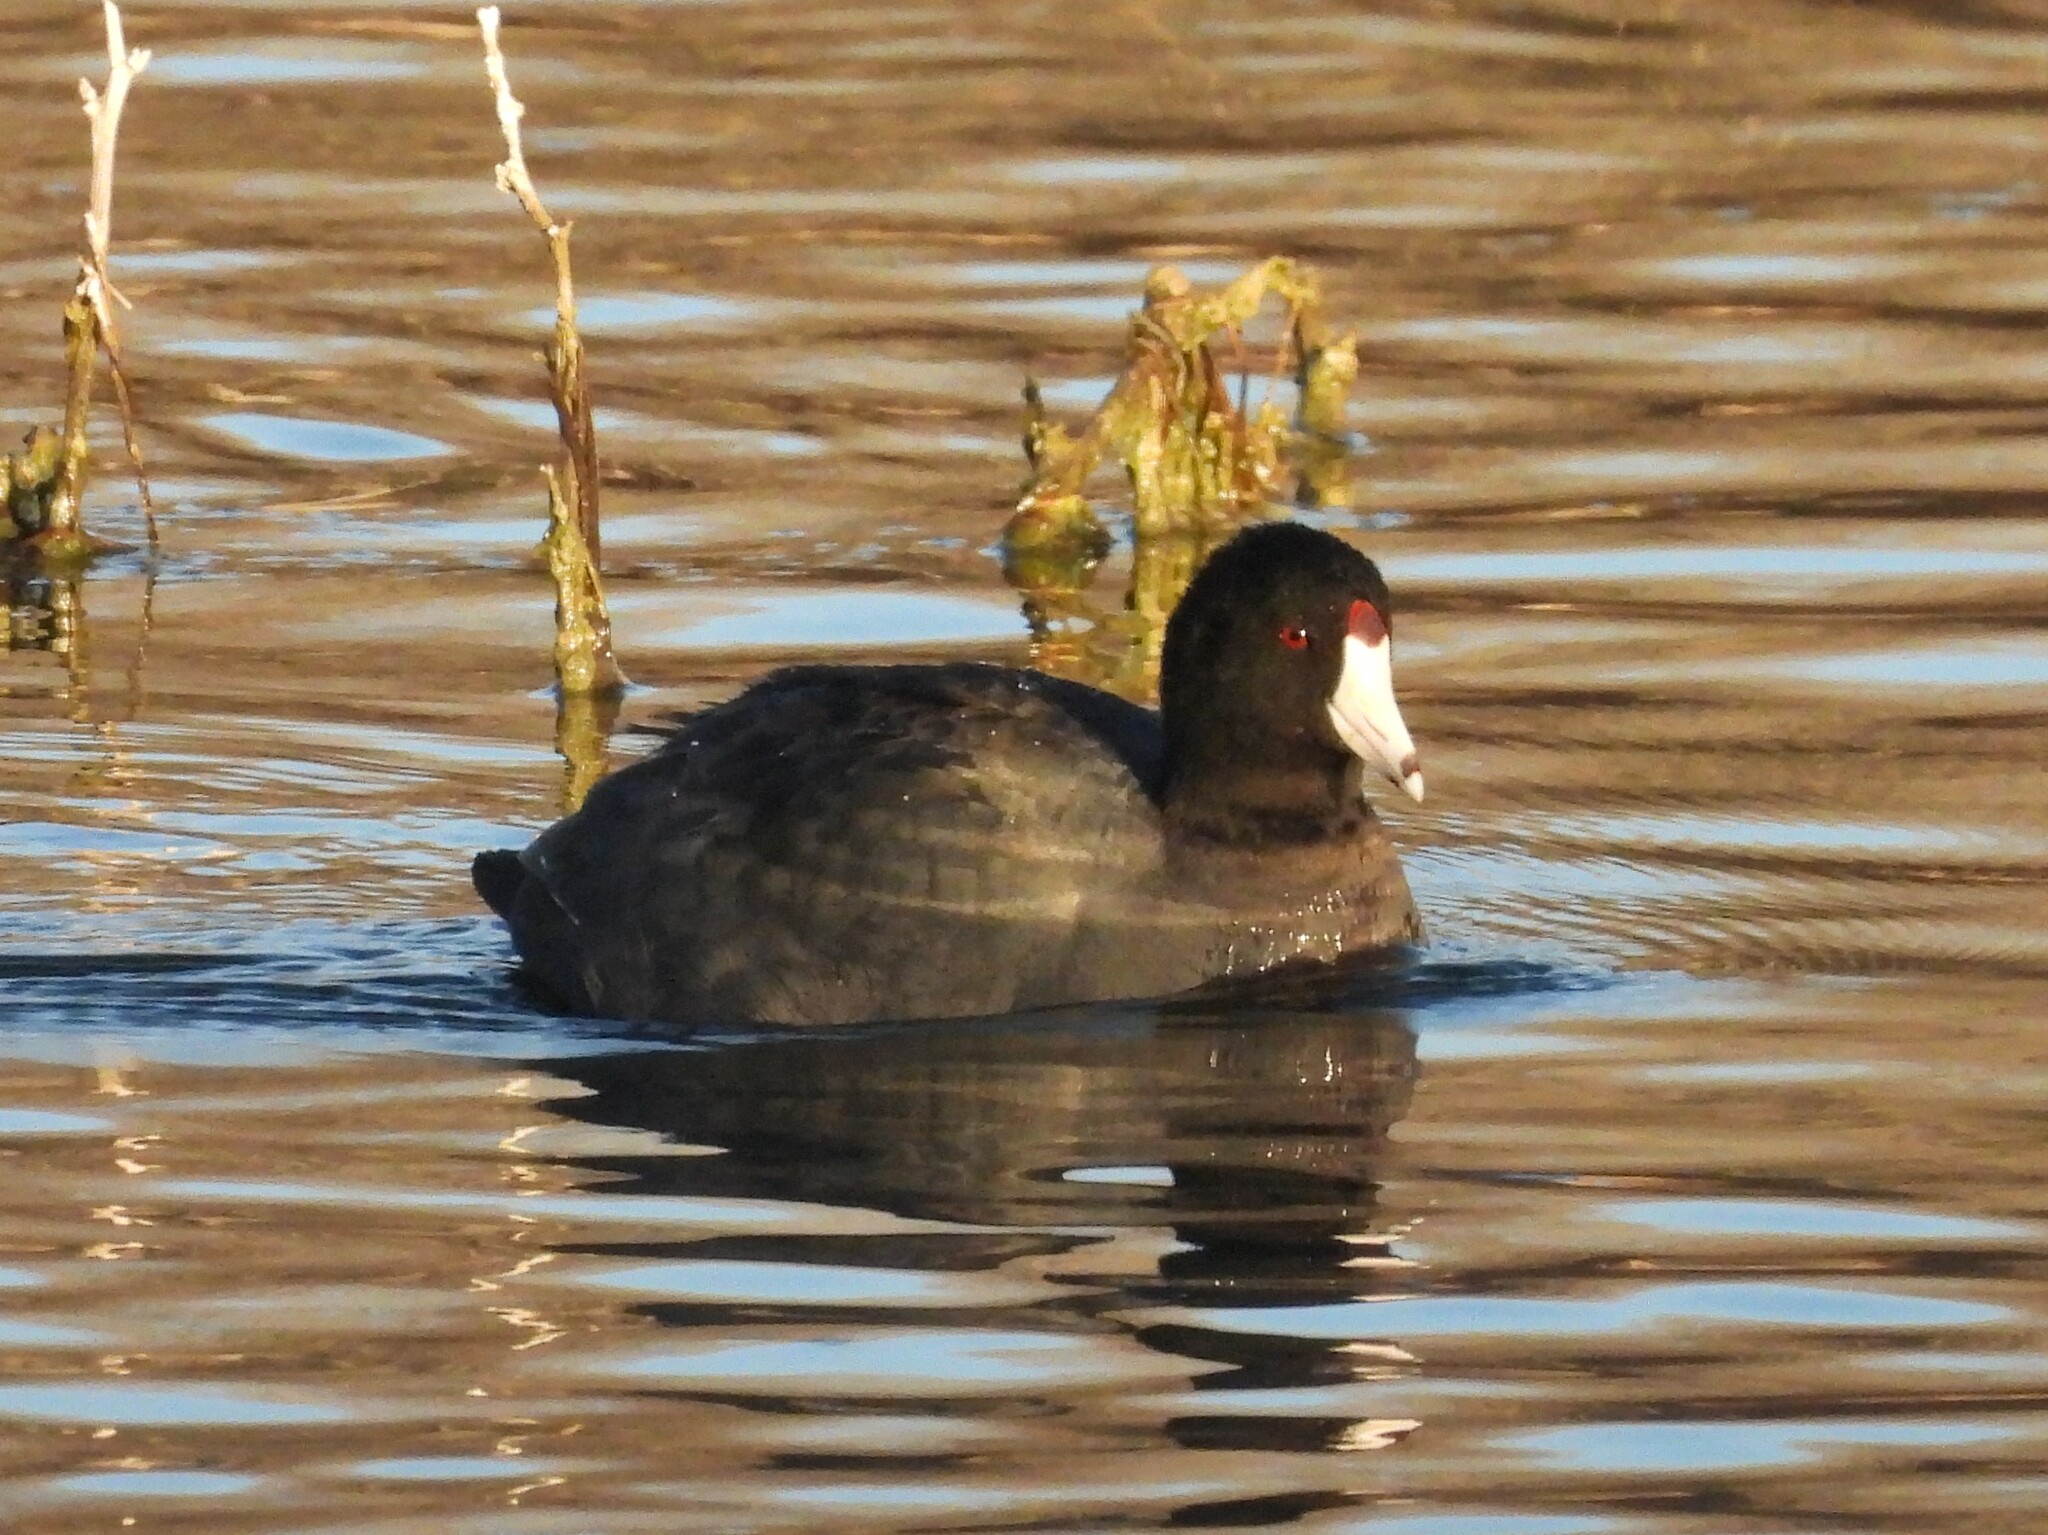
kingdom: Animalia
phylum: Chordata
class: Aves
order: Gruiformes
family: Rallidae
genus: Fulica
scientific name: Fulica americana
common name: American coot
